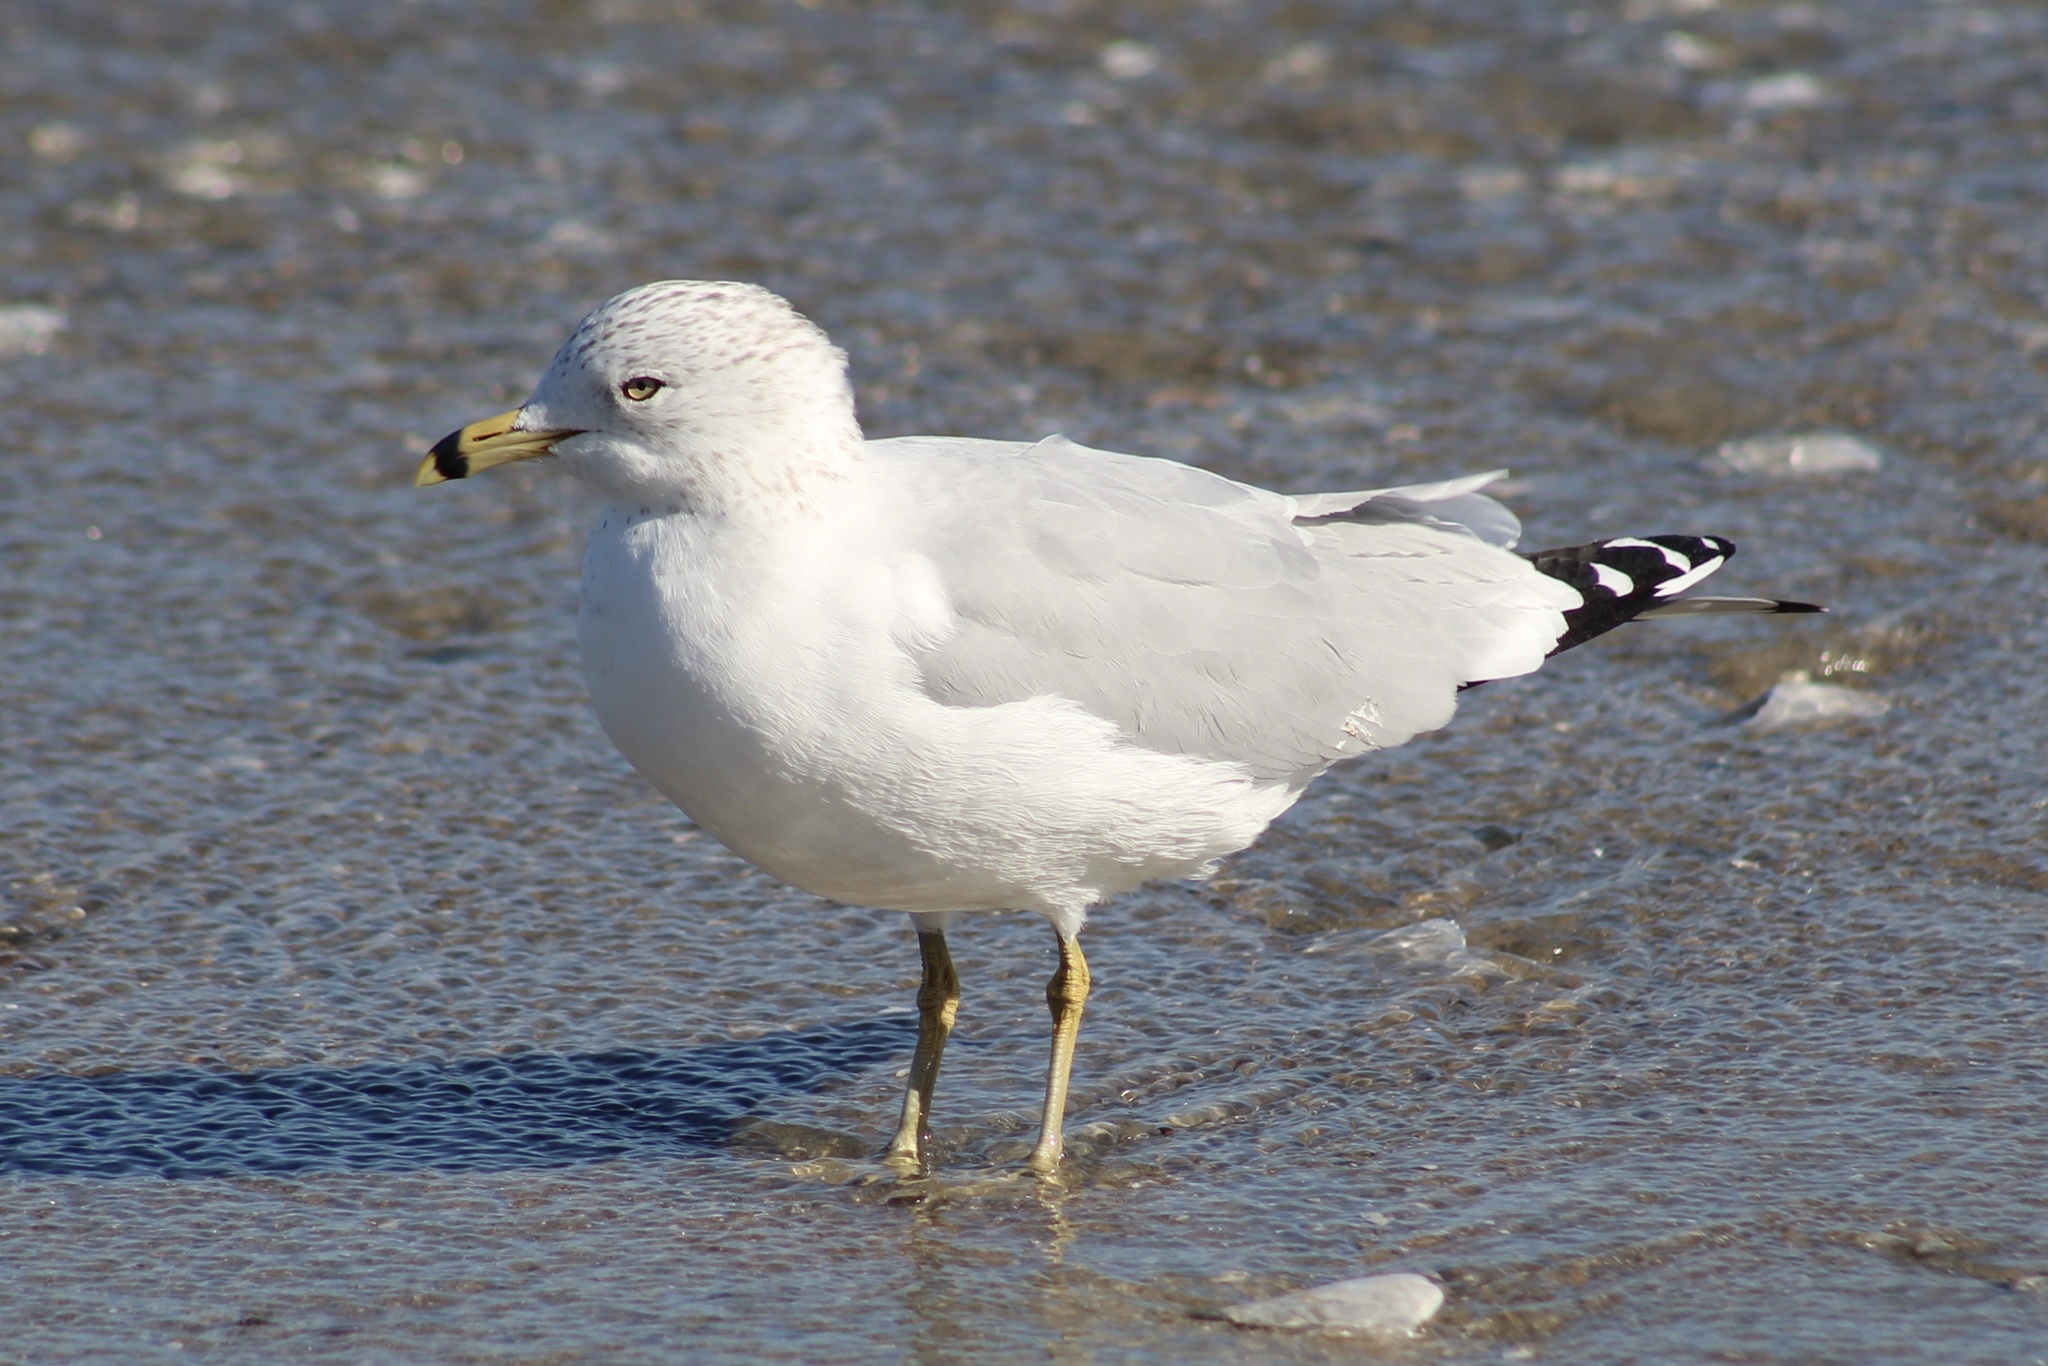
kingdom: Animalia
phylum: Chordata
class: Aves
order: Charadriiformes
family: Laridae
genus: Larus
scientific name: Larus delawarensis
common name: Ring-billed gull
